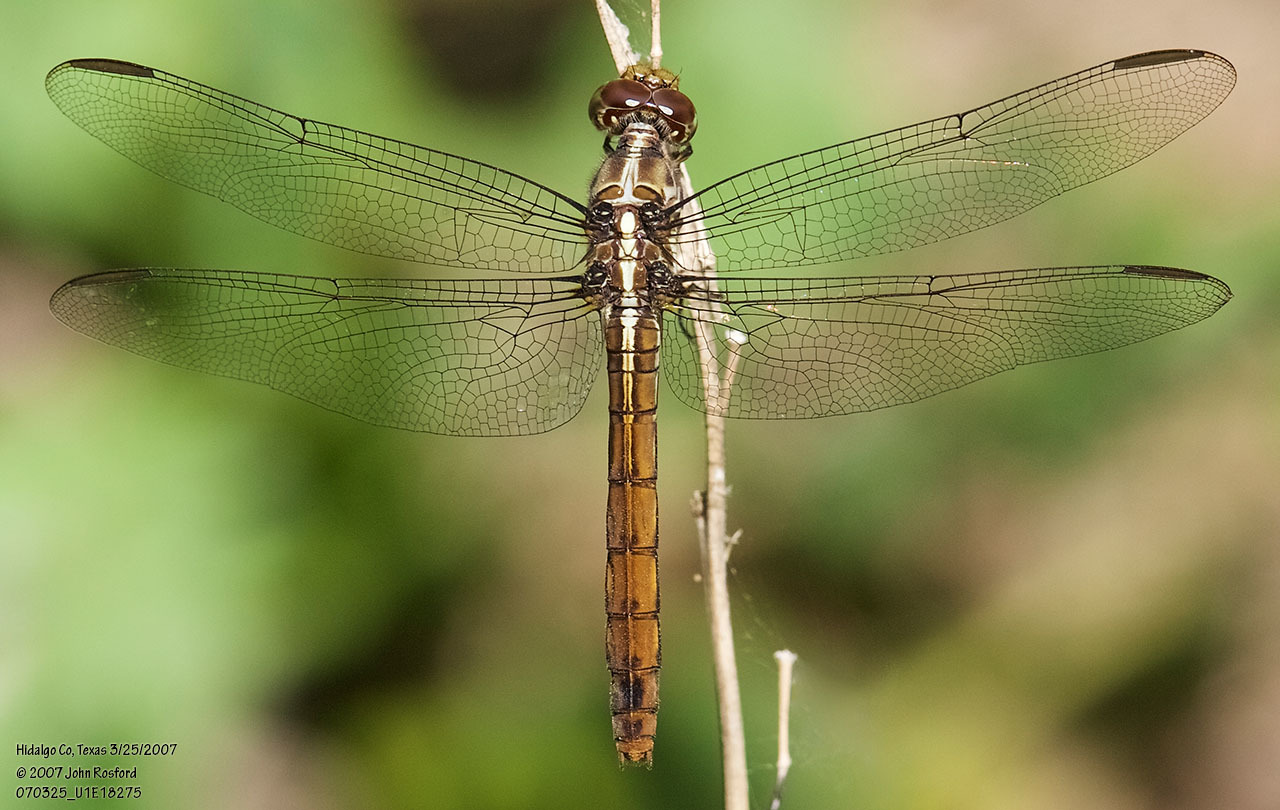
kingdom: Animalia
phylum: Arthropoda
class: Insecta
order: Odonata
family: Libellulidae
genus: Orthemis
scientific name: Orthemis ferruginea
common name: Roseate skimmer
